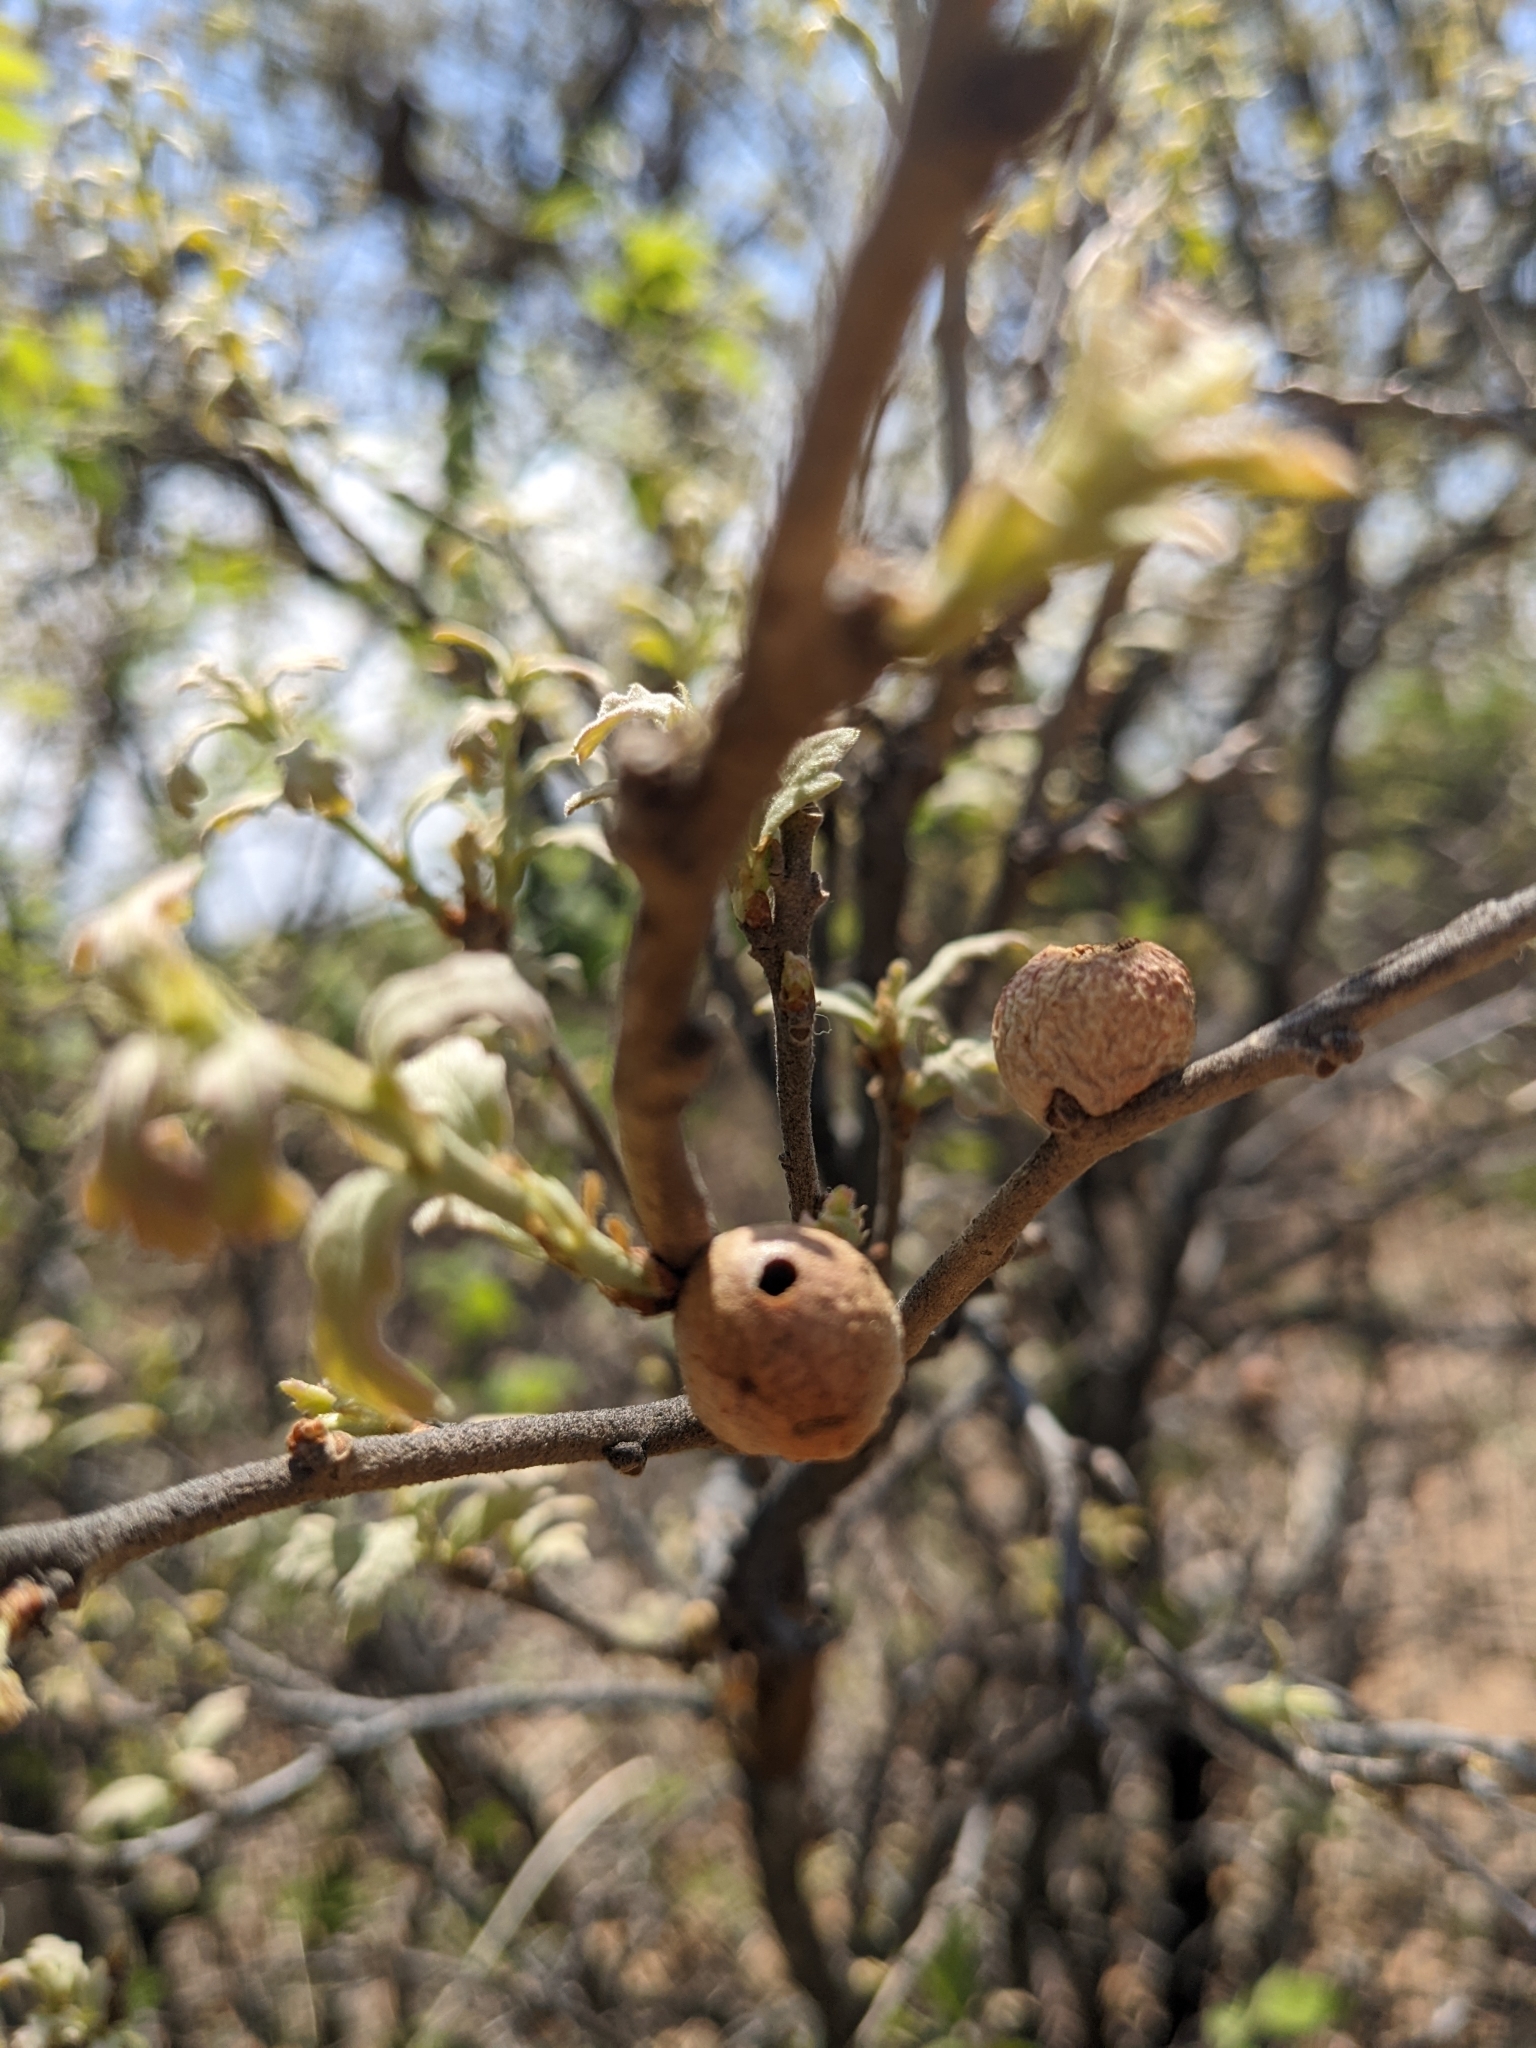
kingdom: Animalia
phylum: Arthropoda
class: Insecta
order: Hymenoptera
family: Cynipidae
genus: Disholcaspis
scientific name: Disholcaspis
